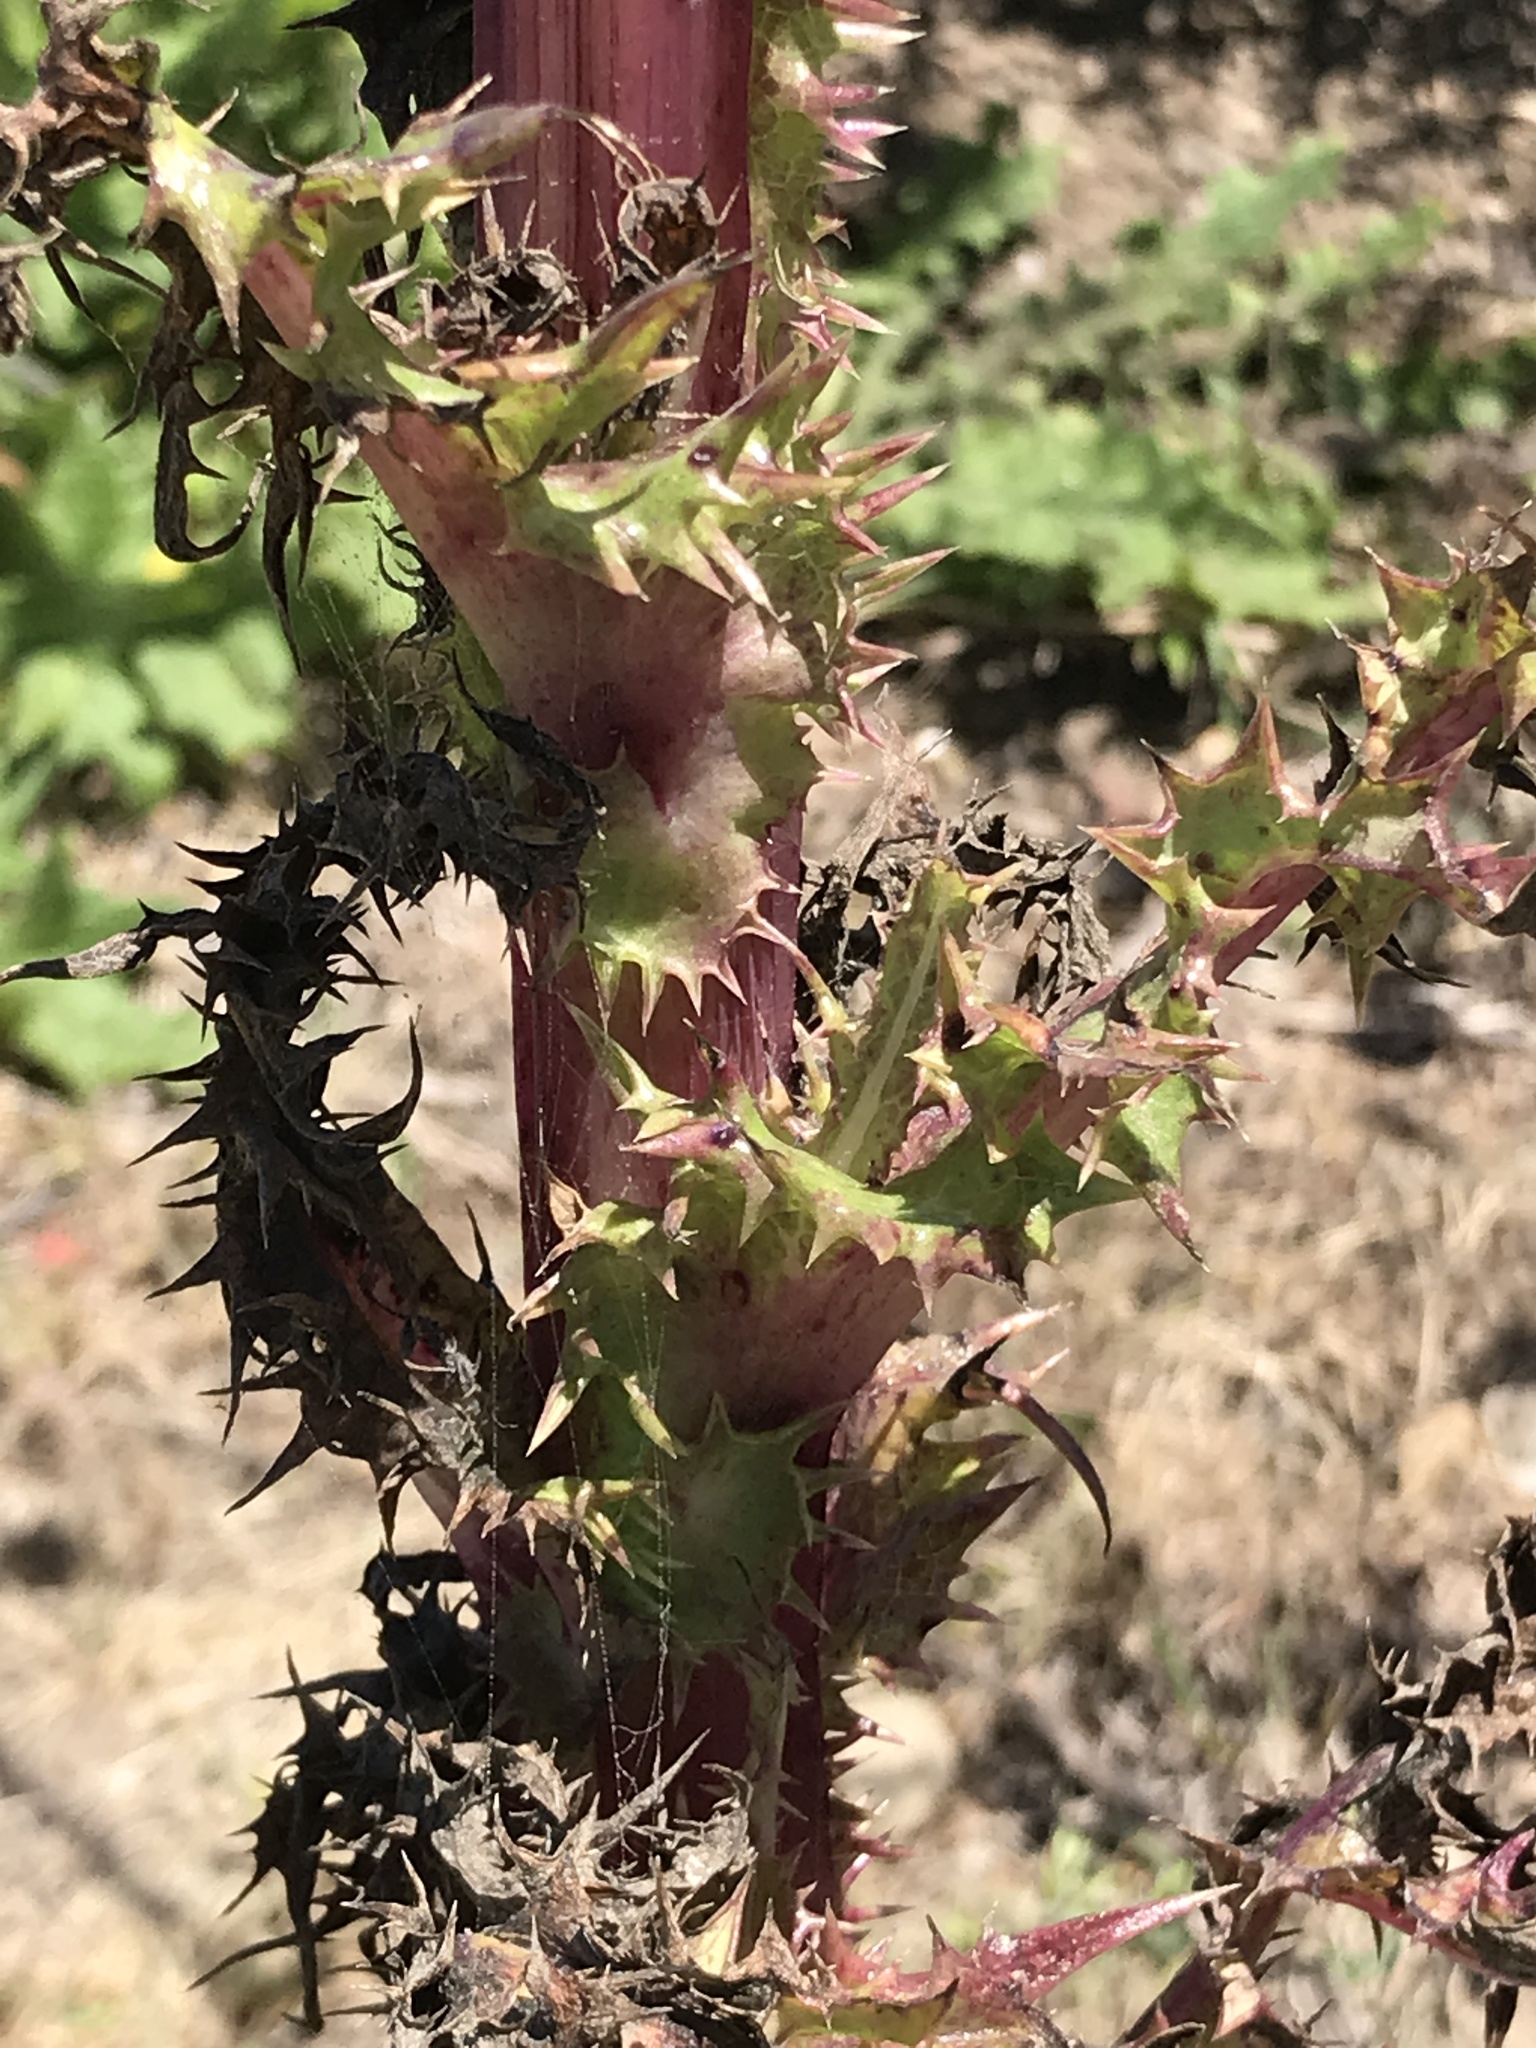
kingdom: Plantae
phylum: Tracheophyta
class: Magnoliopsida
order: Asterales
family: Asteraceae
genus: Sonchus
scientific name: Sonchus asper
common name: Prickly sow-thistle
